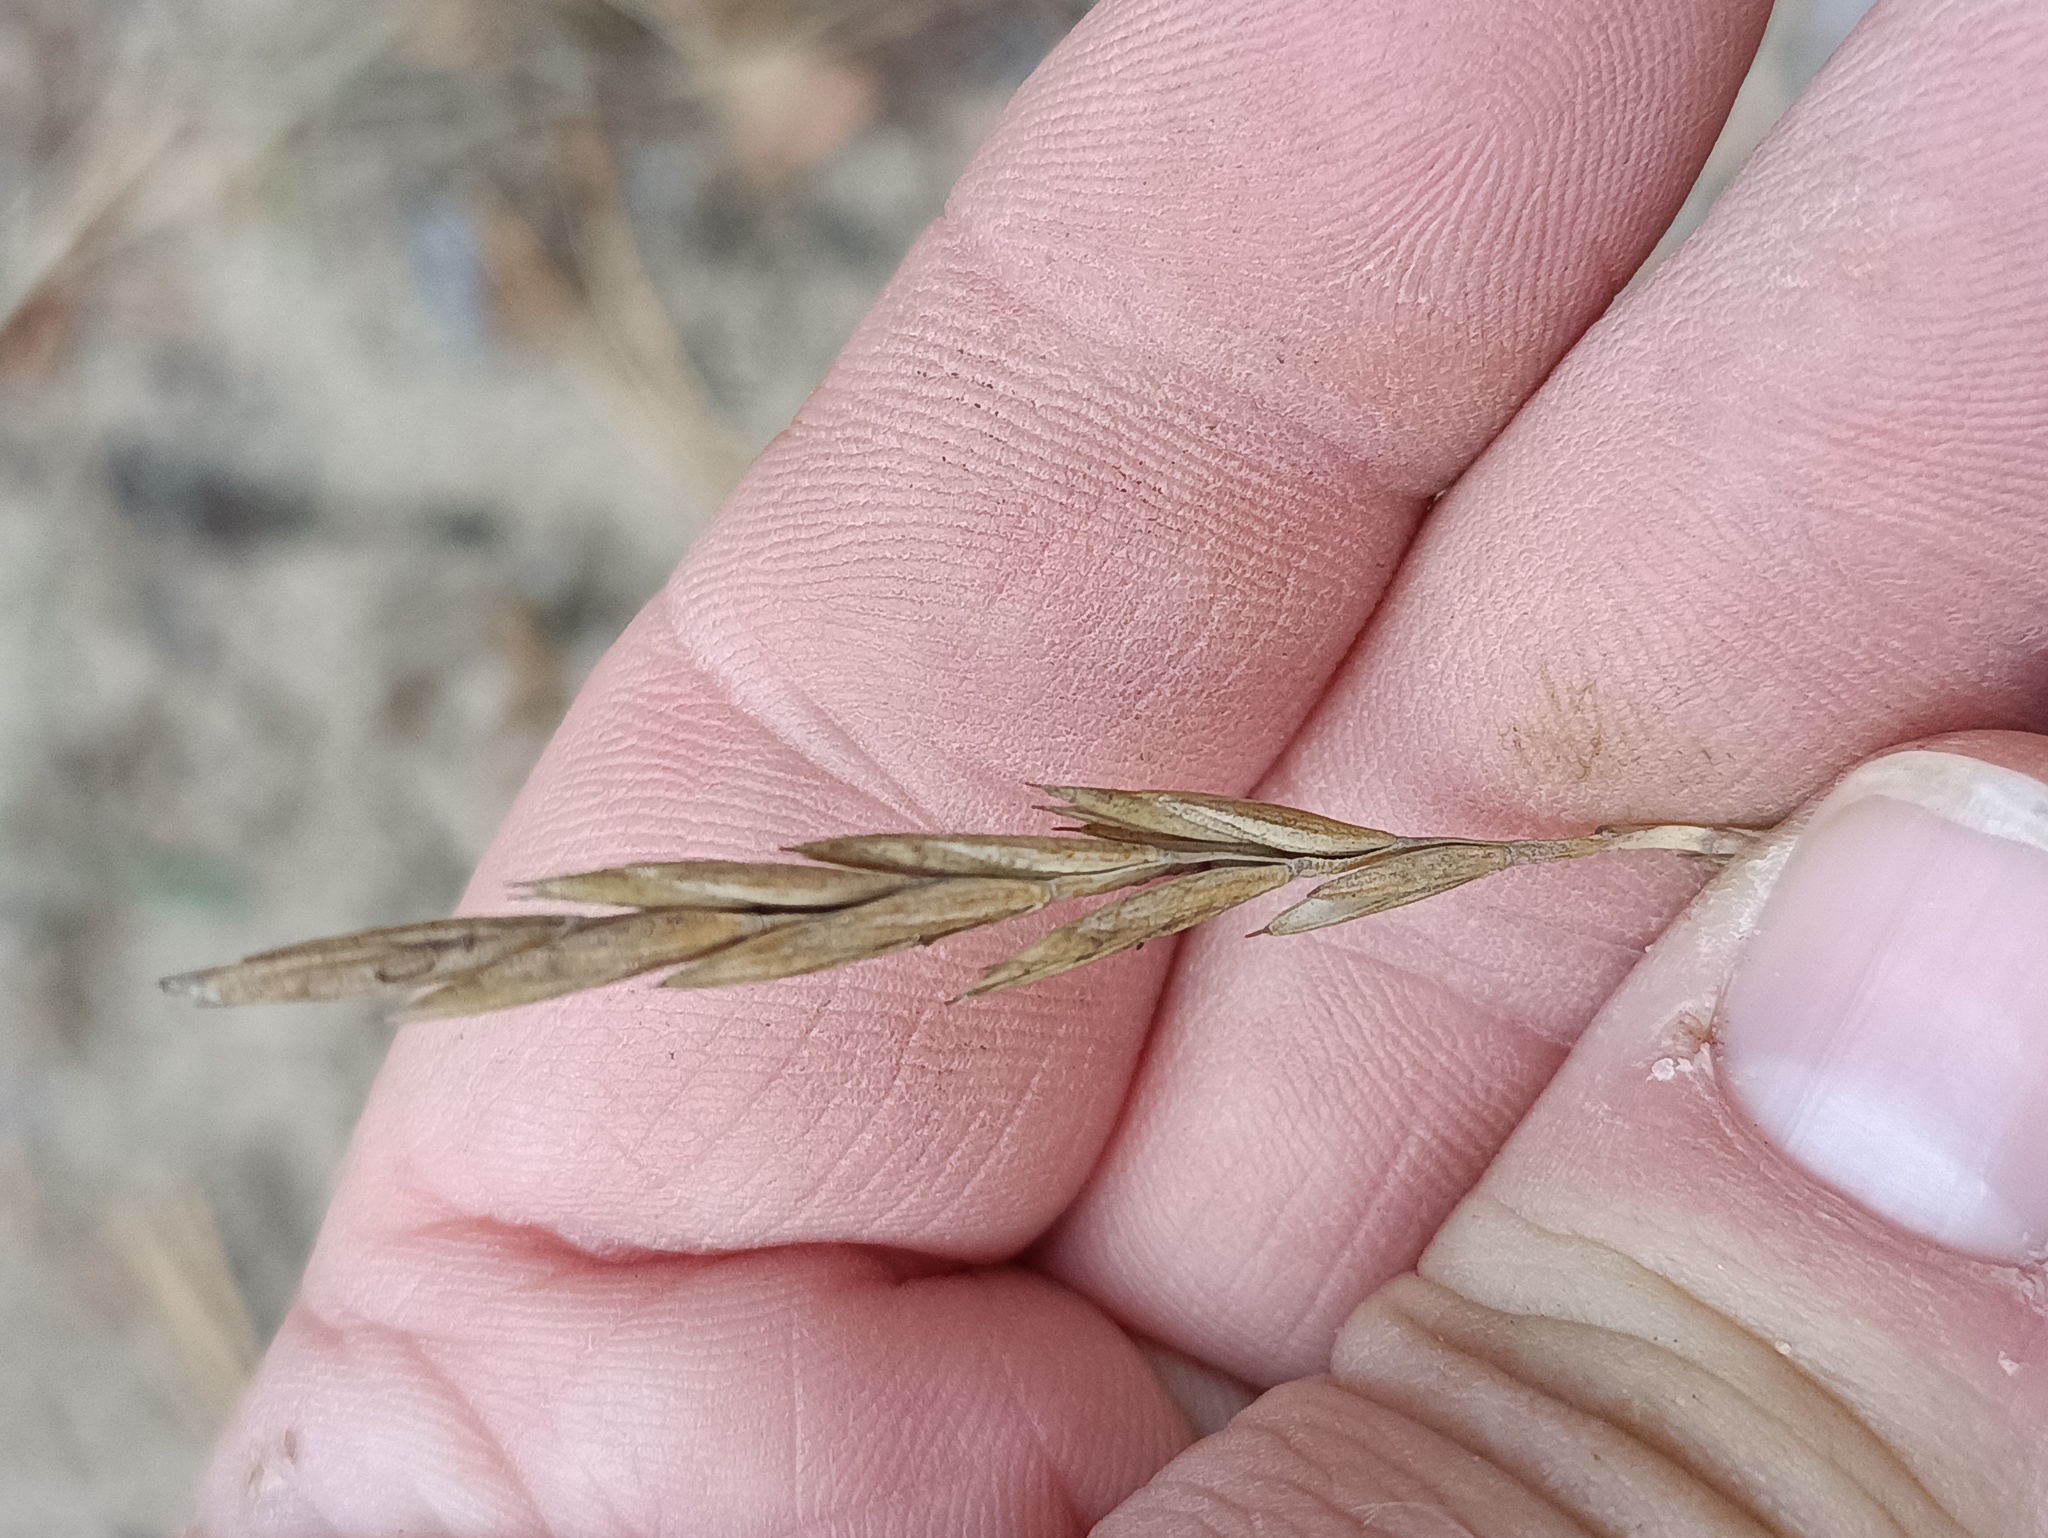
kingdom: Plantae
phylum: Tracheophyta
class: Liliopsida
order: Poales
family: Poaceae
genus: Elymus
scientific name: Elymus repens
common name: Quackgrass
